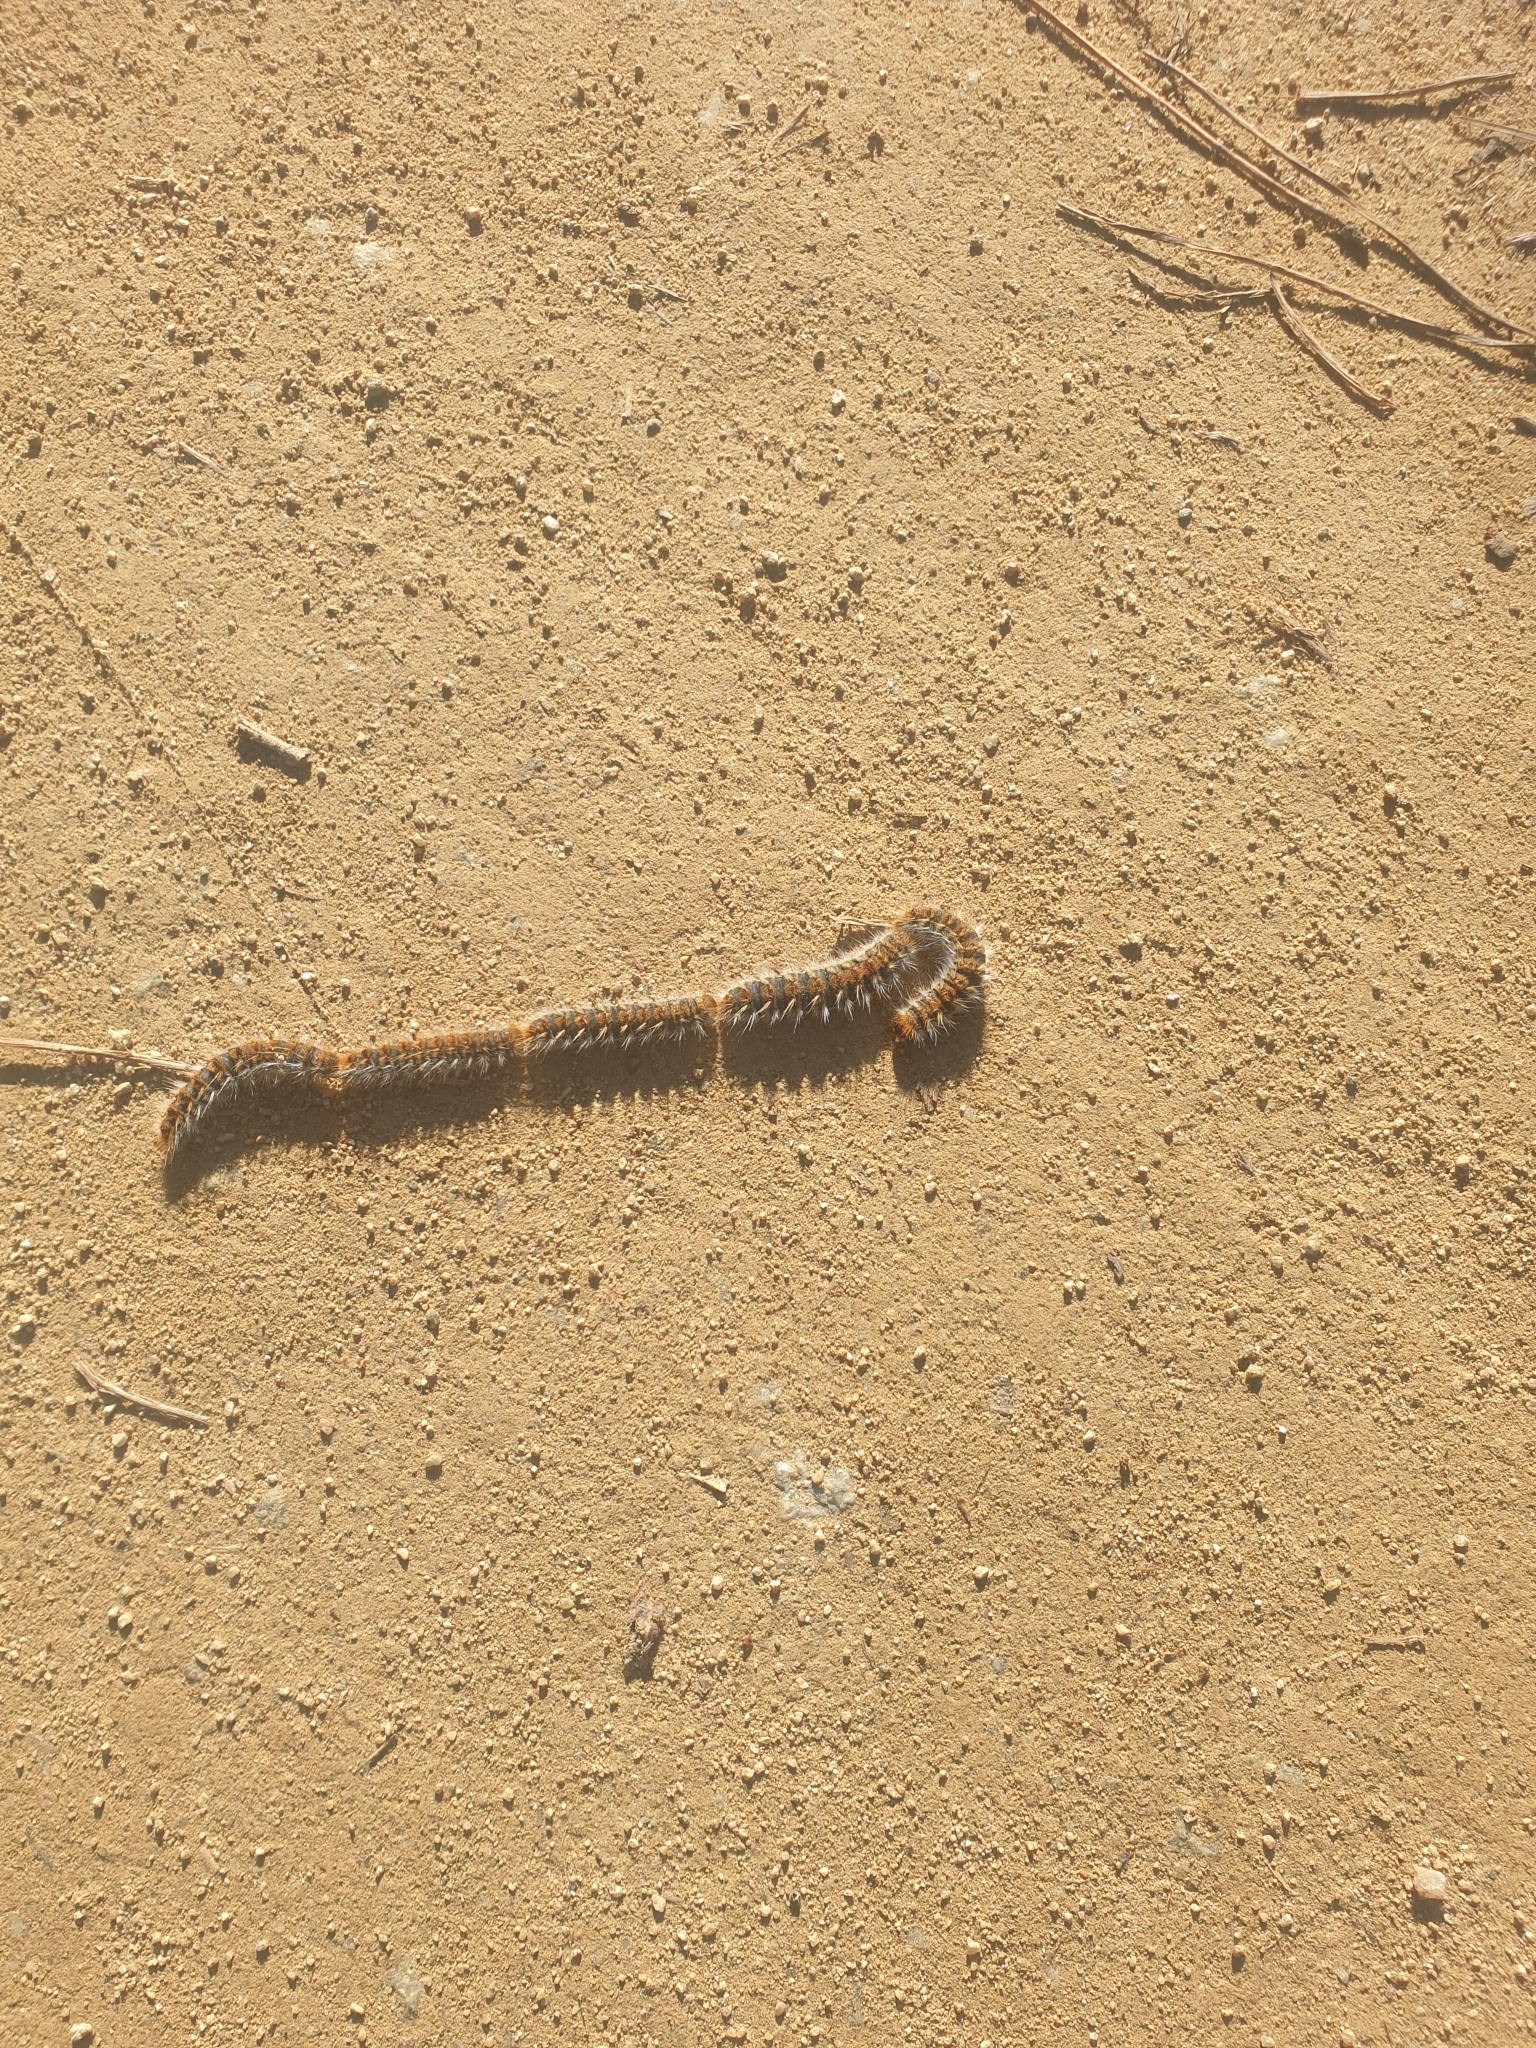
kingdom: Animalia
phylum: Arthropoda
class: Insecta
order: Lepidoptera
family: Notodontidae
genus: Thaumetopoea
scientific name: Thaumetopoea pityocampa
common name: Pine processionary
